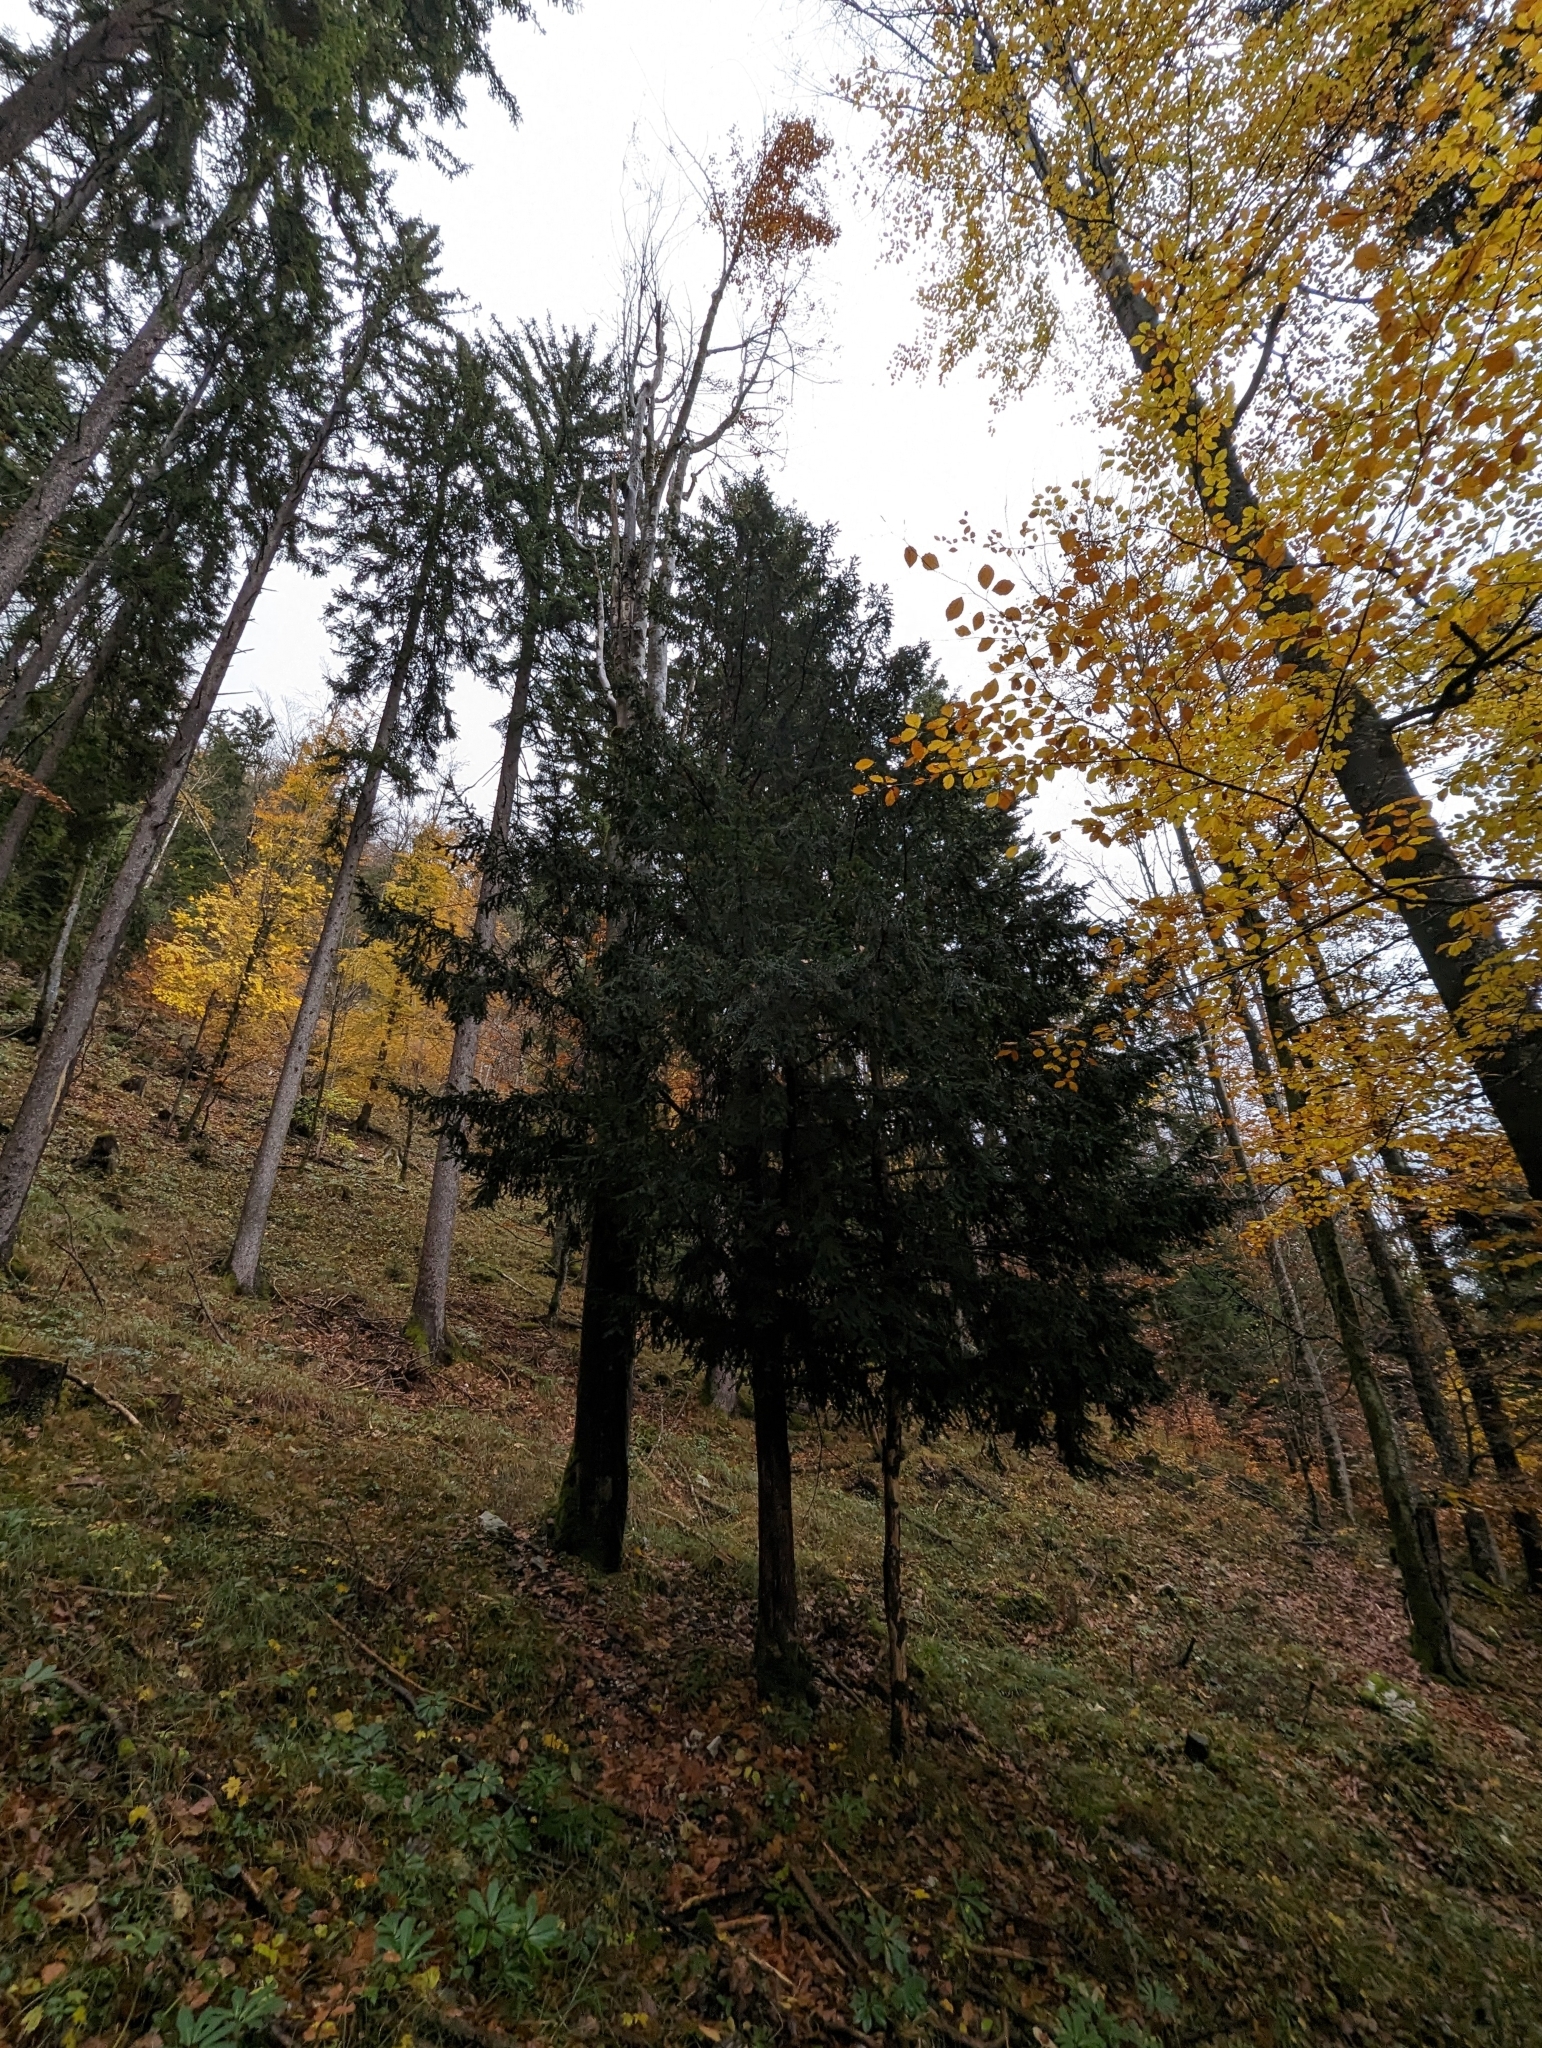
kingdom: Plantae
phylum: Tracheophyta
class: Pinopsida
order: Pinales
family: Taxaceae
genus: Taxus
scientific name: Taxus baccata
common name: Yew
